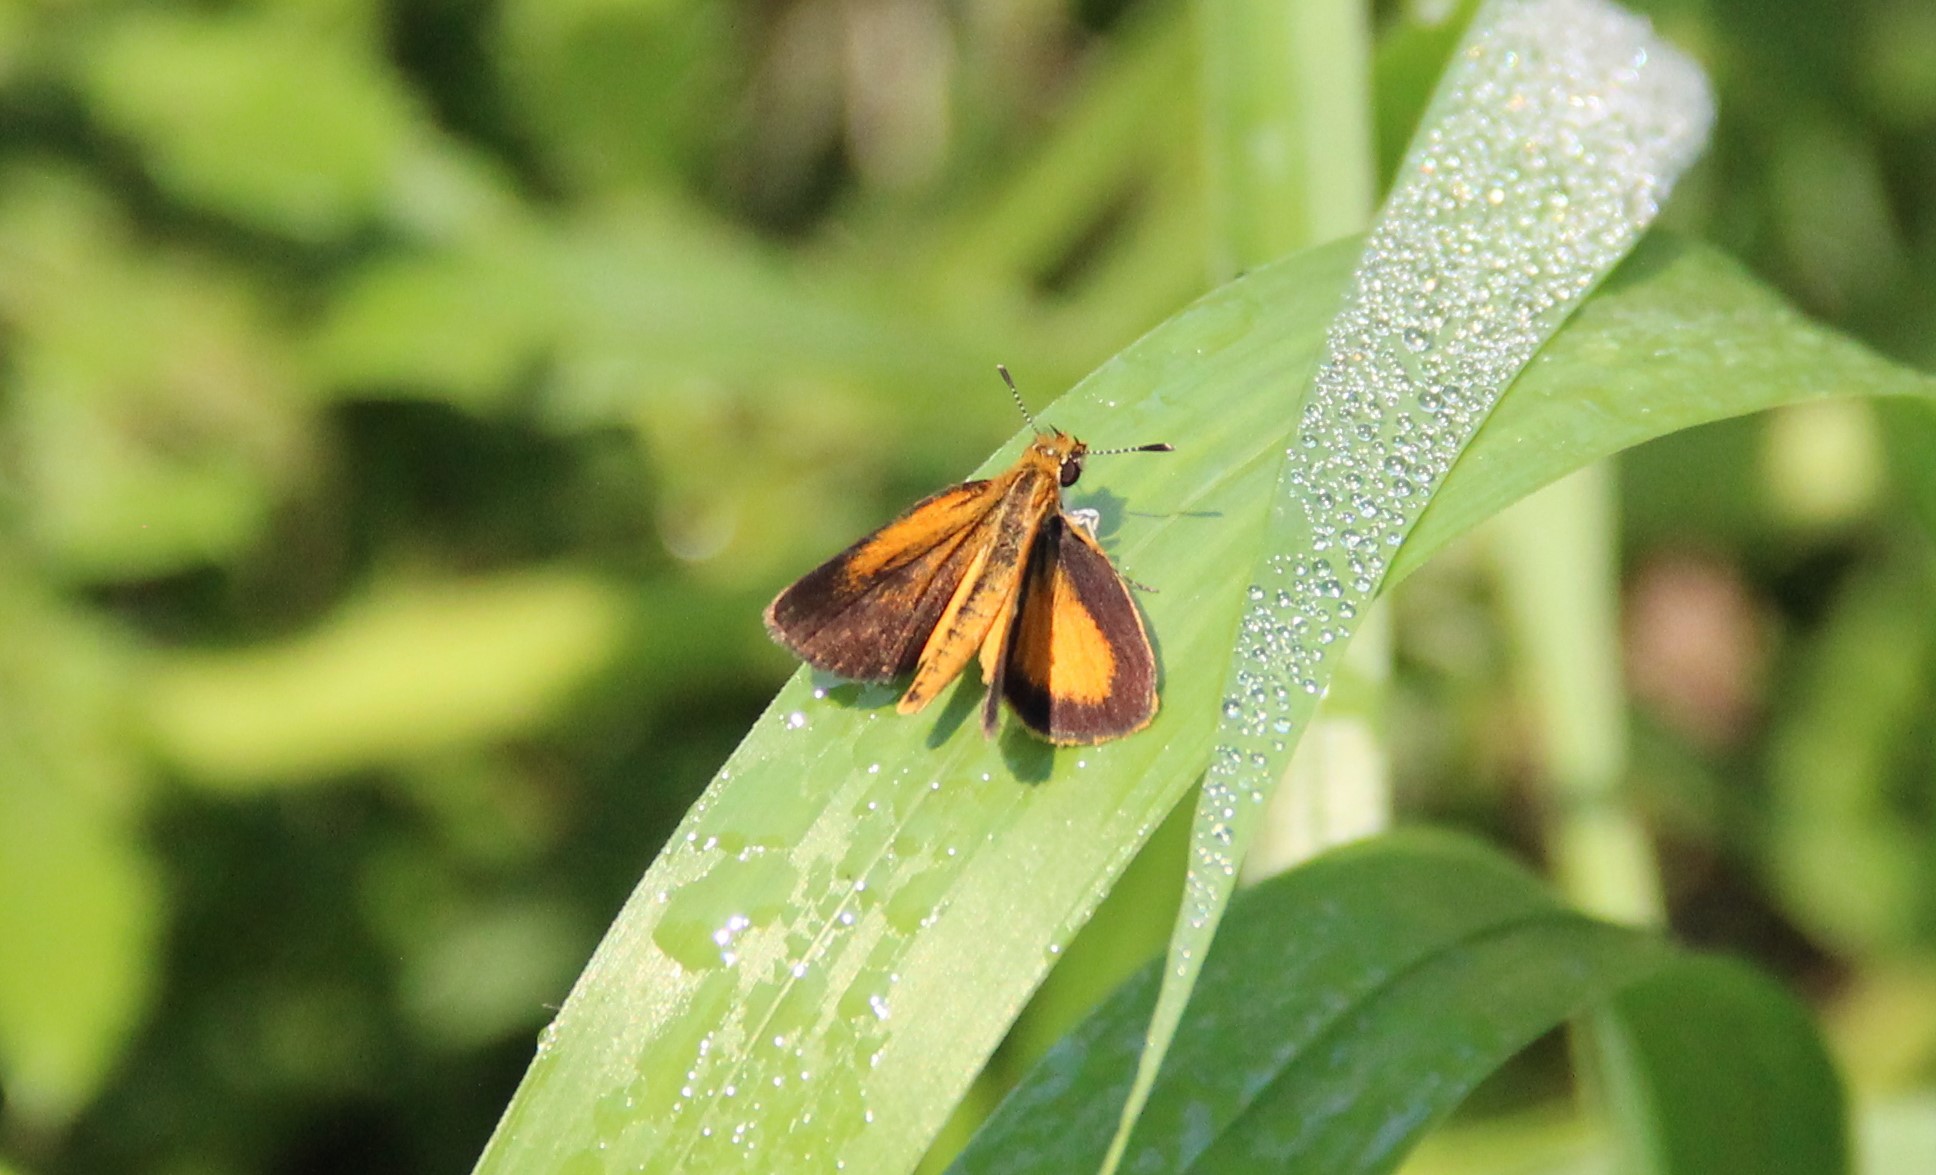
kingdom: Animalia
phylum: Arthropoda
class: Insecta
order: Lepidoptera
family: Hesperiidae
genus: Ancyloxypha
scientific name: Ancyloxypha numitor
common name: Least skipper
